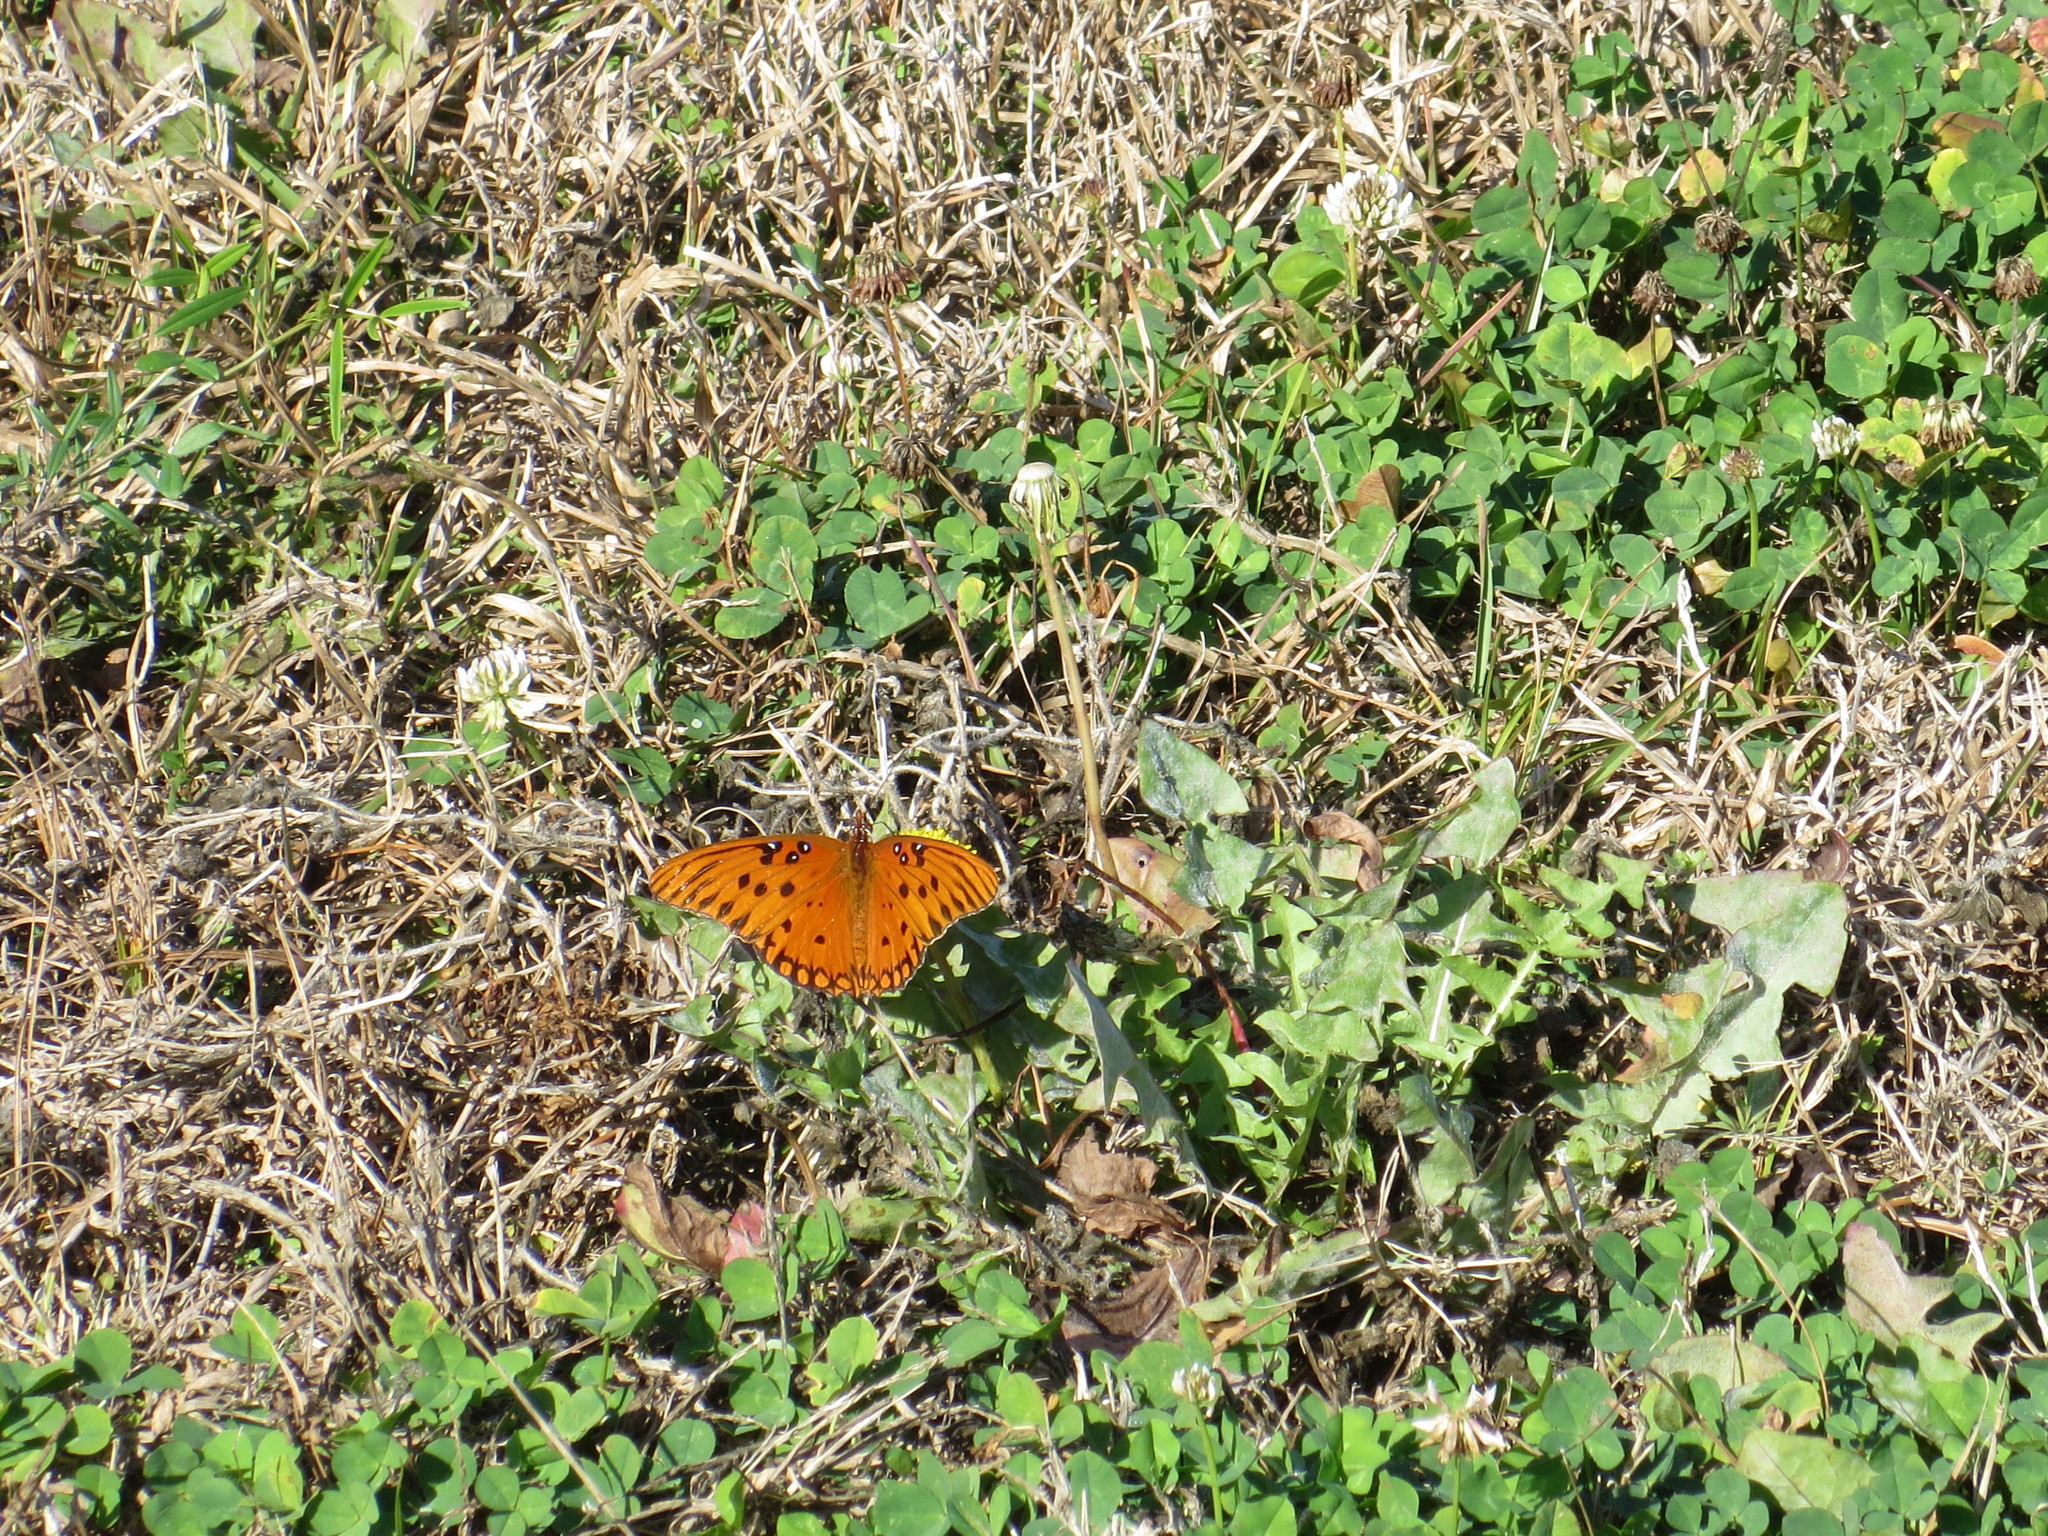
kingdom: Animalia
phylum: Arthropoda
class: Insecta
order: Lepidoptera
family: Nymphalidae
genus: Dione
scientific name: Dione vanillae
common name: Gulf fritillary
